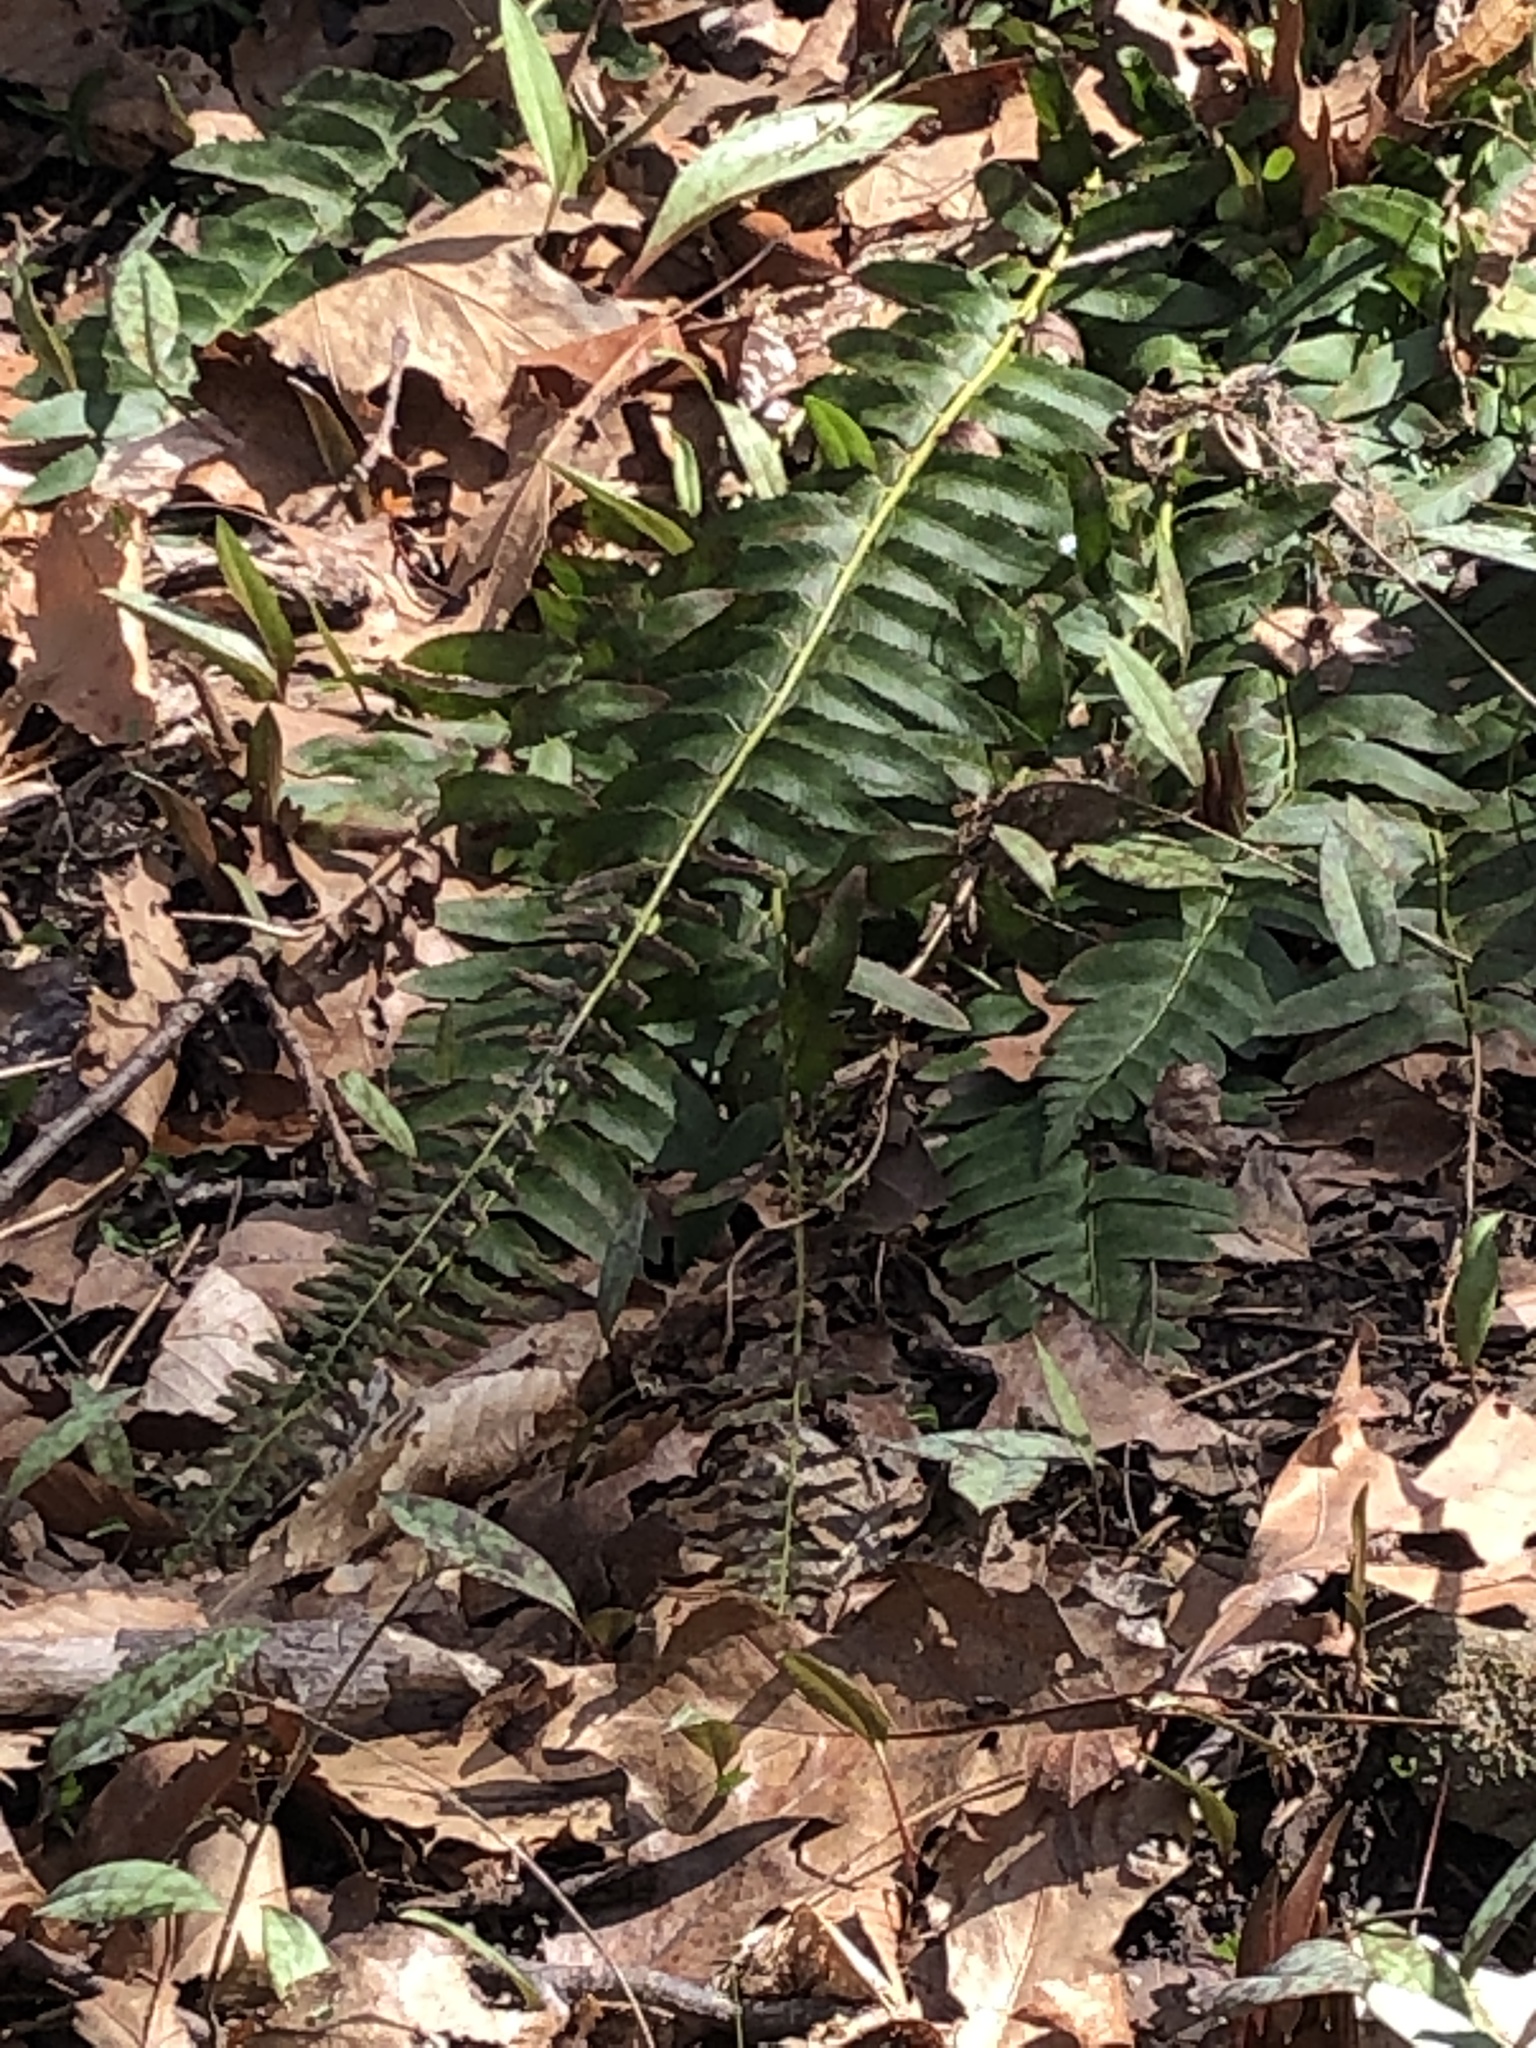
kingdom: Plantae
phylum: Tracheophyta
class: Polypodiopsida
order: Polypodiales
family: Dryopteridaceae
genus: Polystichum
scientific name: Polystichum acrostichoides
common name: Christmas fern
